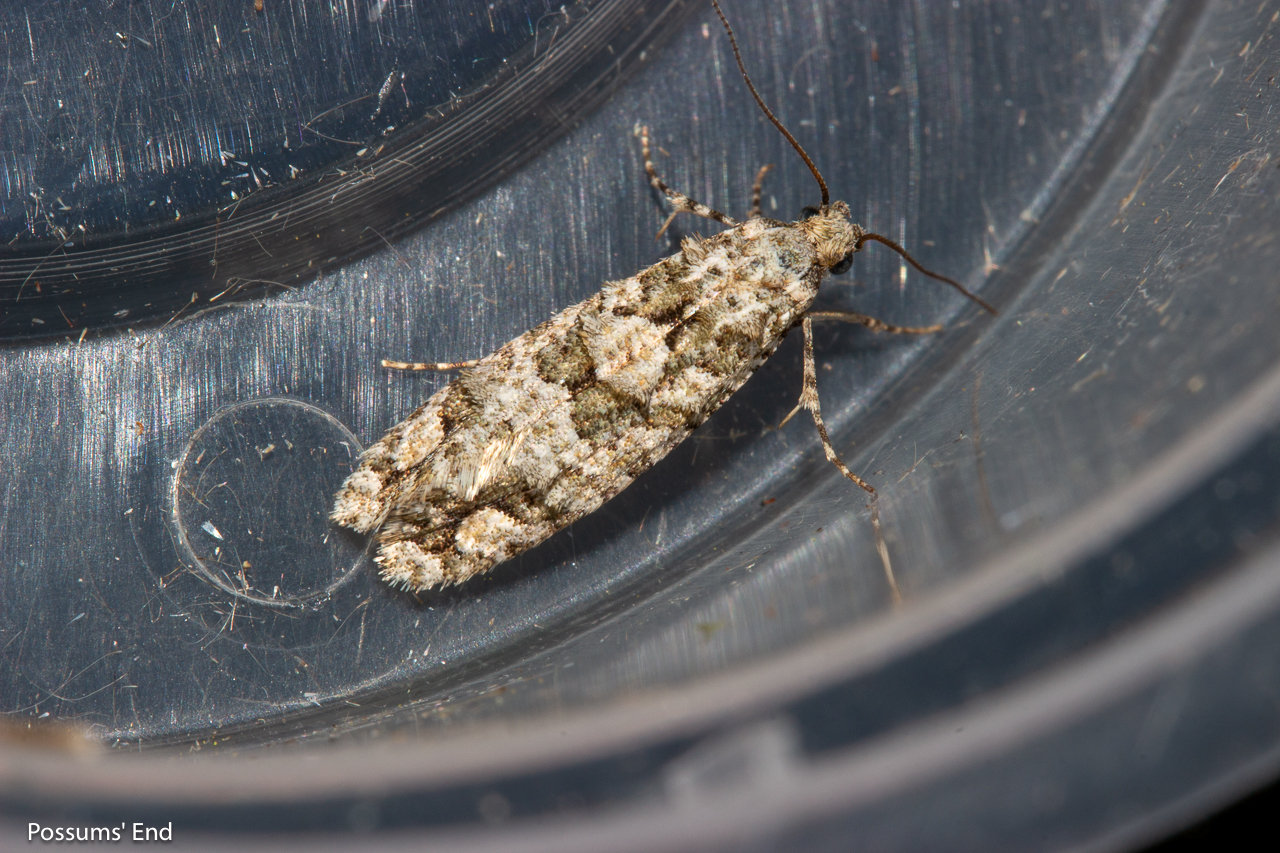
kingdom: Animalia
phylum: Arthropoda
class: Insecta
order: Lepidoptera
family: Tineidae
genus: Lysiphragma
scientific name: Lysiphragma howesii
